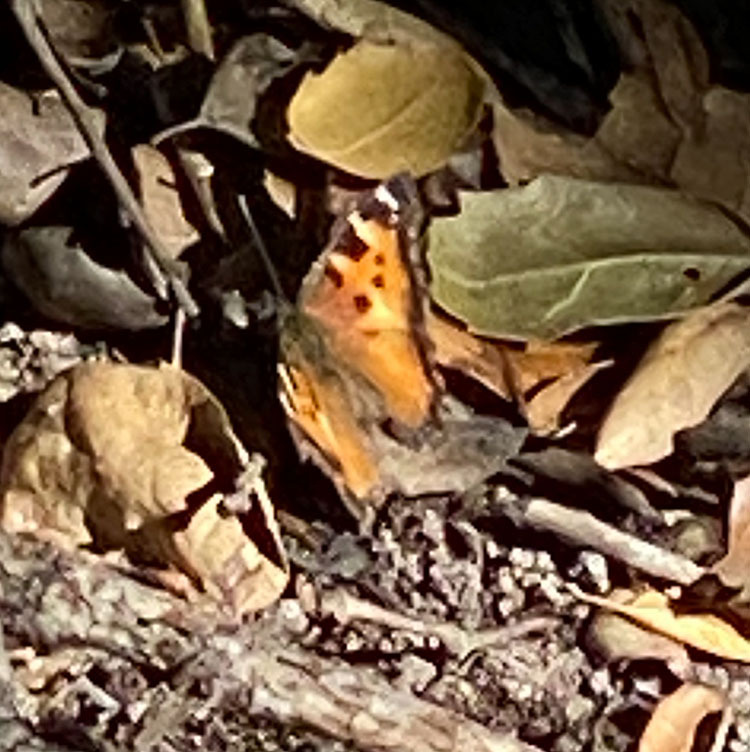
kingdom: Animalia
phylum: Arthropoda
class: Insecta
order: Lepidoptera
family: Nymphalidae
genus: Nymphalis
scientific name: Nymphalis californica
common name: California tortoiseshell
